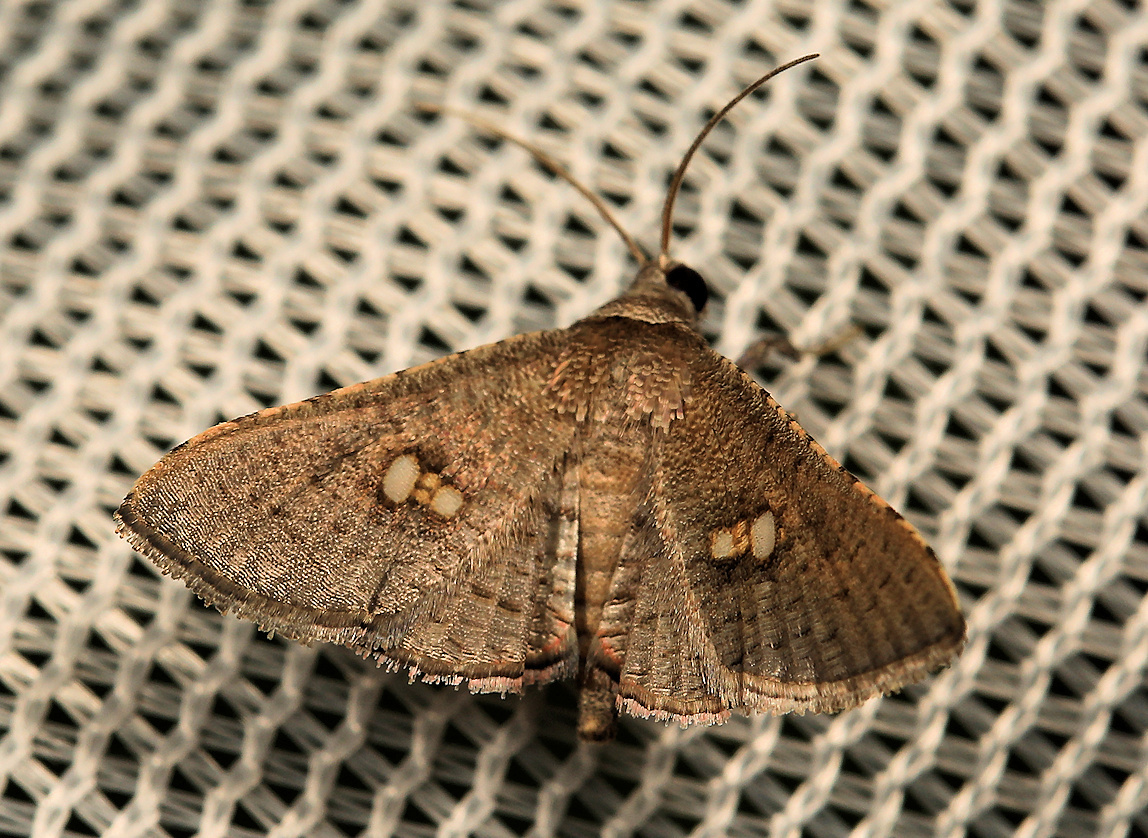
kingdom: Animalia
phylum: Arthropoda
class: Insecta
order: Lepidoptera
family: Thyrididae
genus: Banisia
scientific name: Banisia myrsusalis
